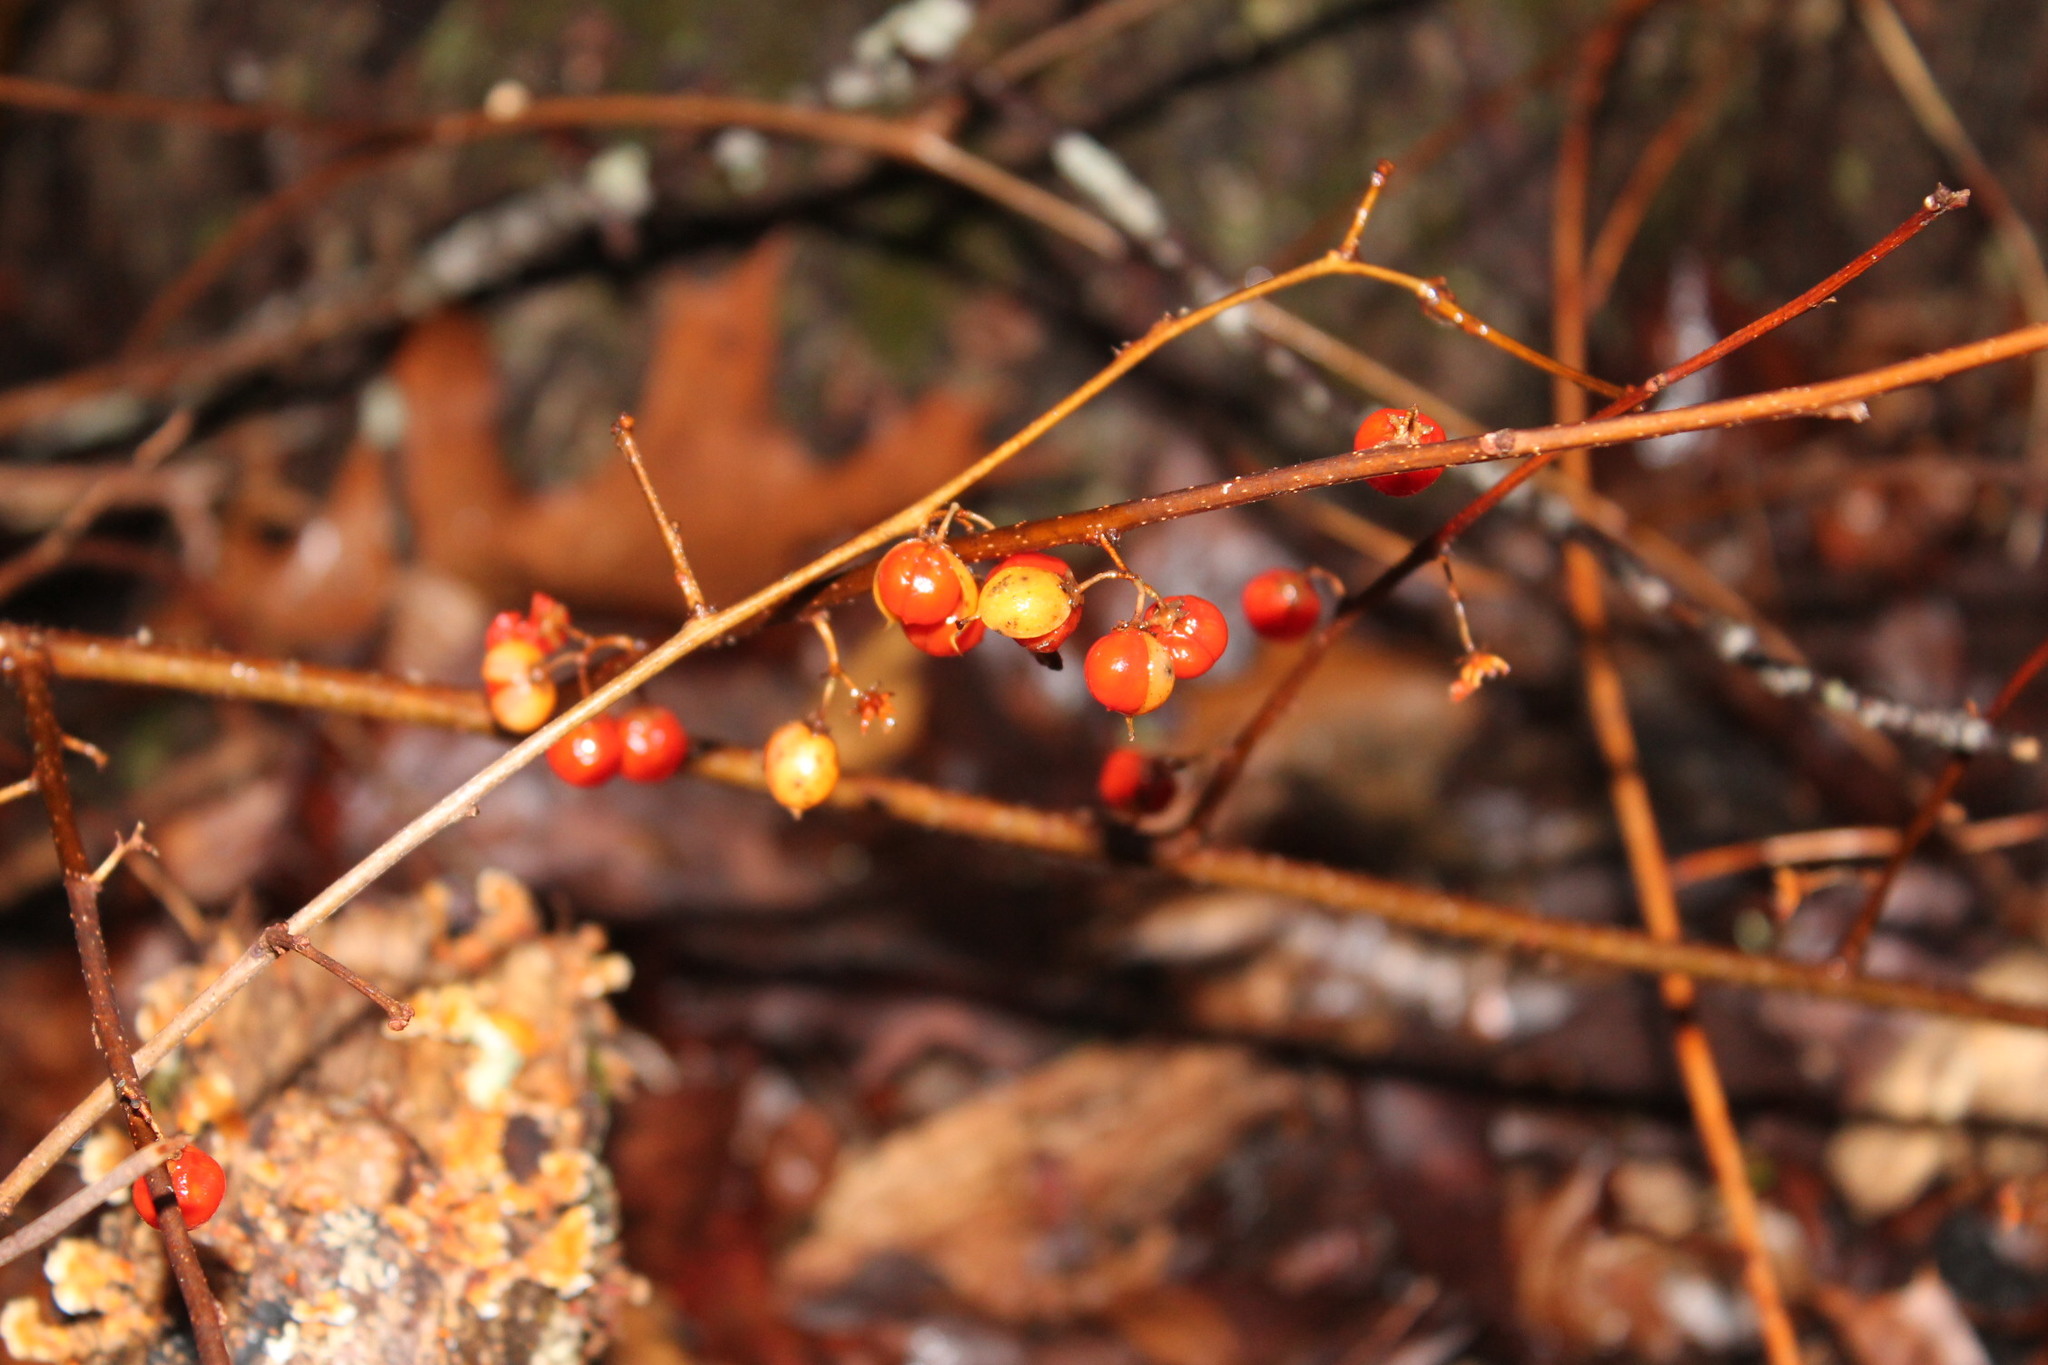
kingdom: Plantae
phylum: Tracheophyta
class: Magnoliopsida
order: Celastrales
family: Celastraceae
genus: Celastrus
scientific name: Celastrus orbiculatus
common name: Oriental bittersweet
